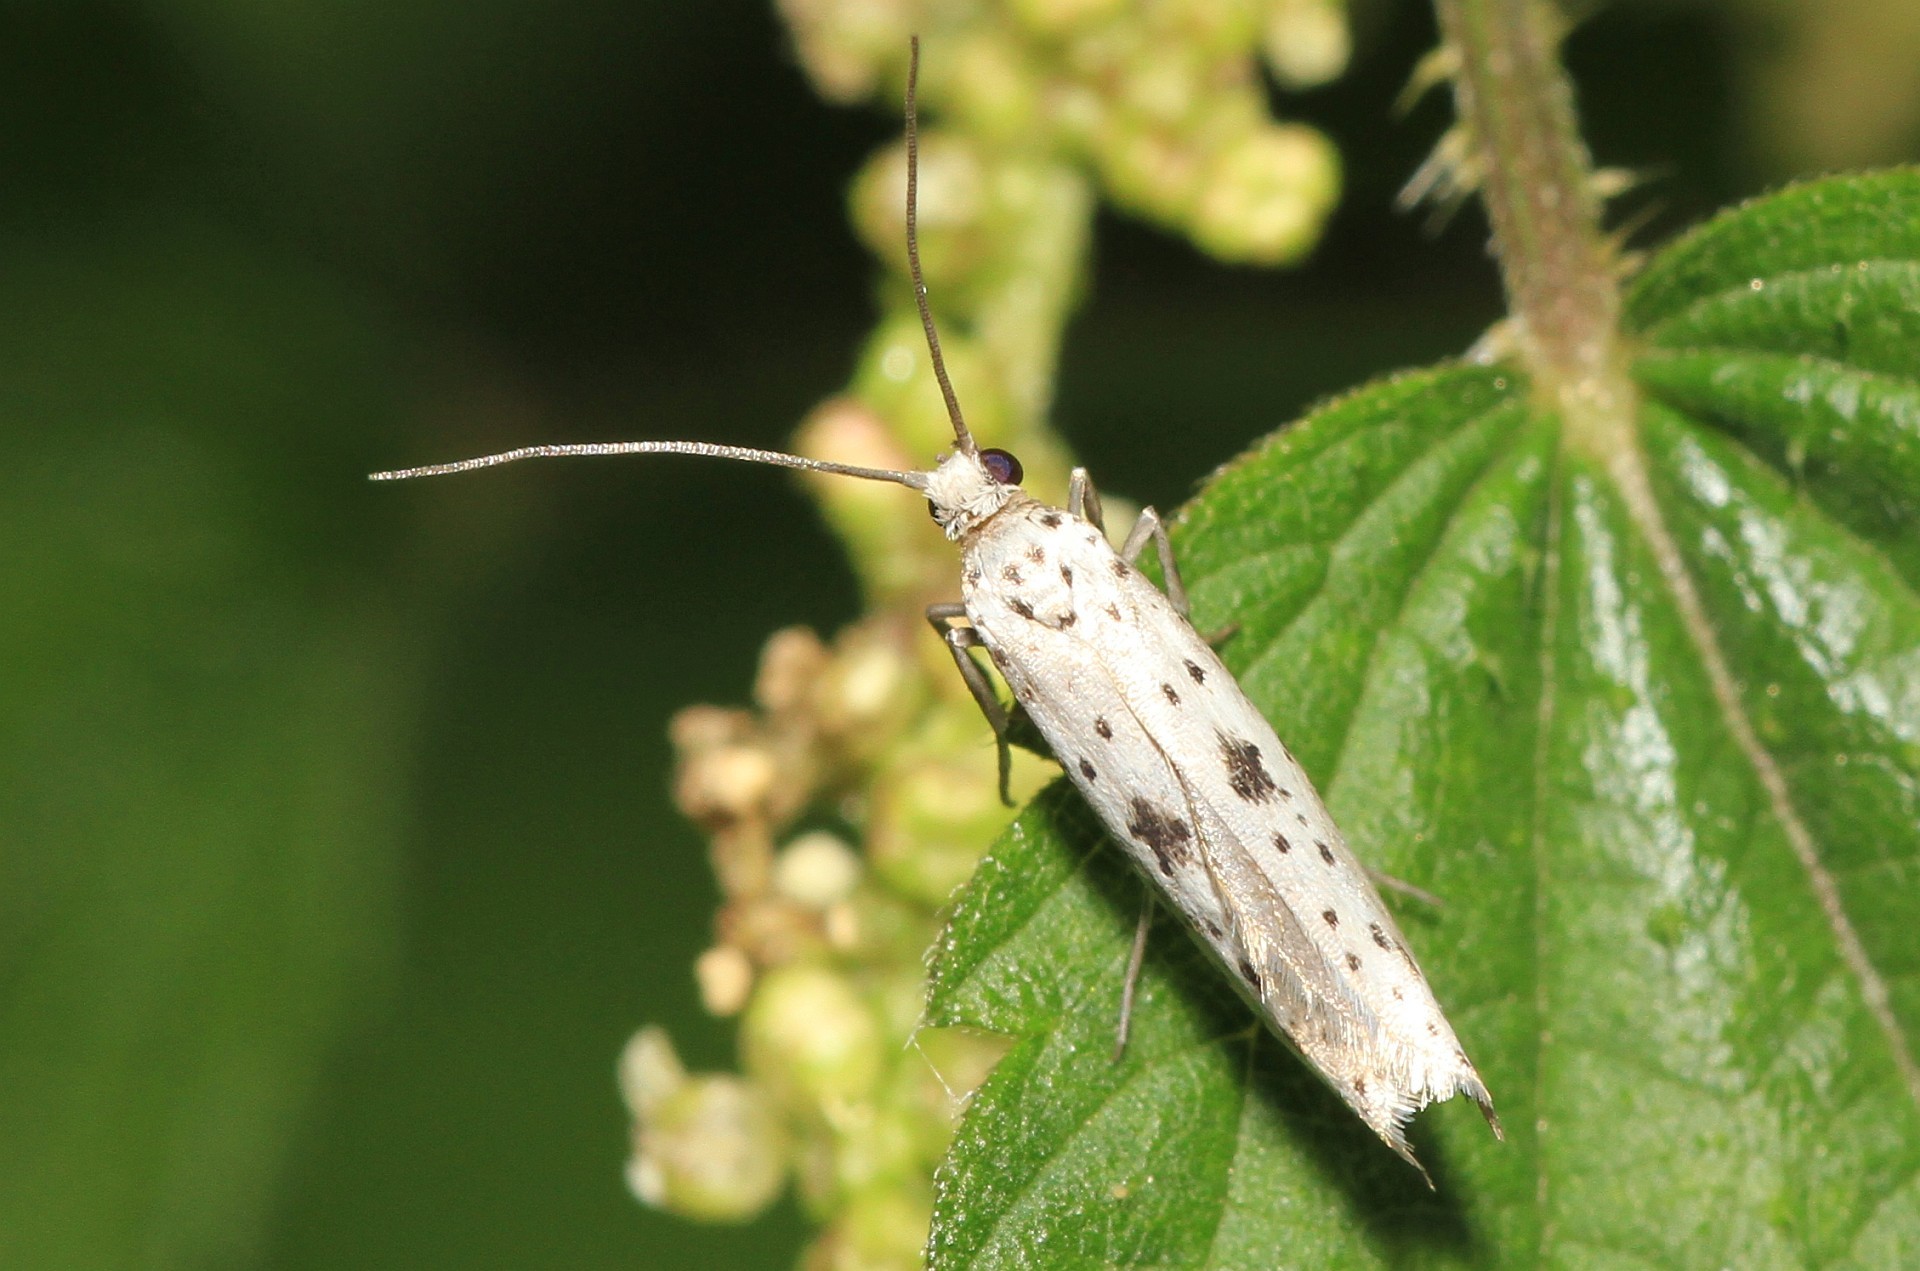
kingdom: Animalia
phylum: Arthropoda
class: Insecta
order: Lepidoptera
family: Yponomeutidae
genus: Yponomeuta
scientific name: Yponomeuta plumbella
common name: Black-tipped ermine
